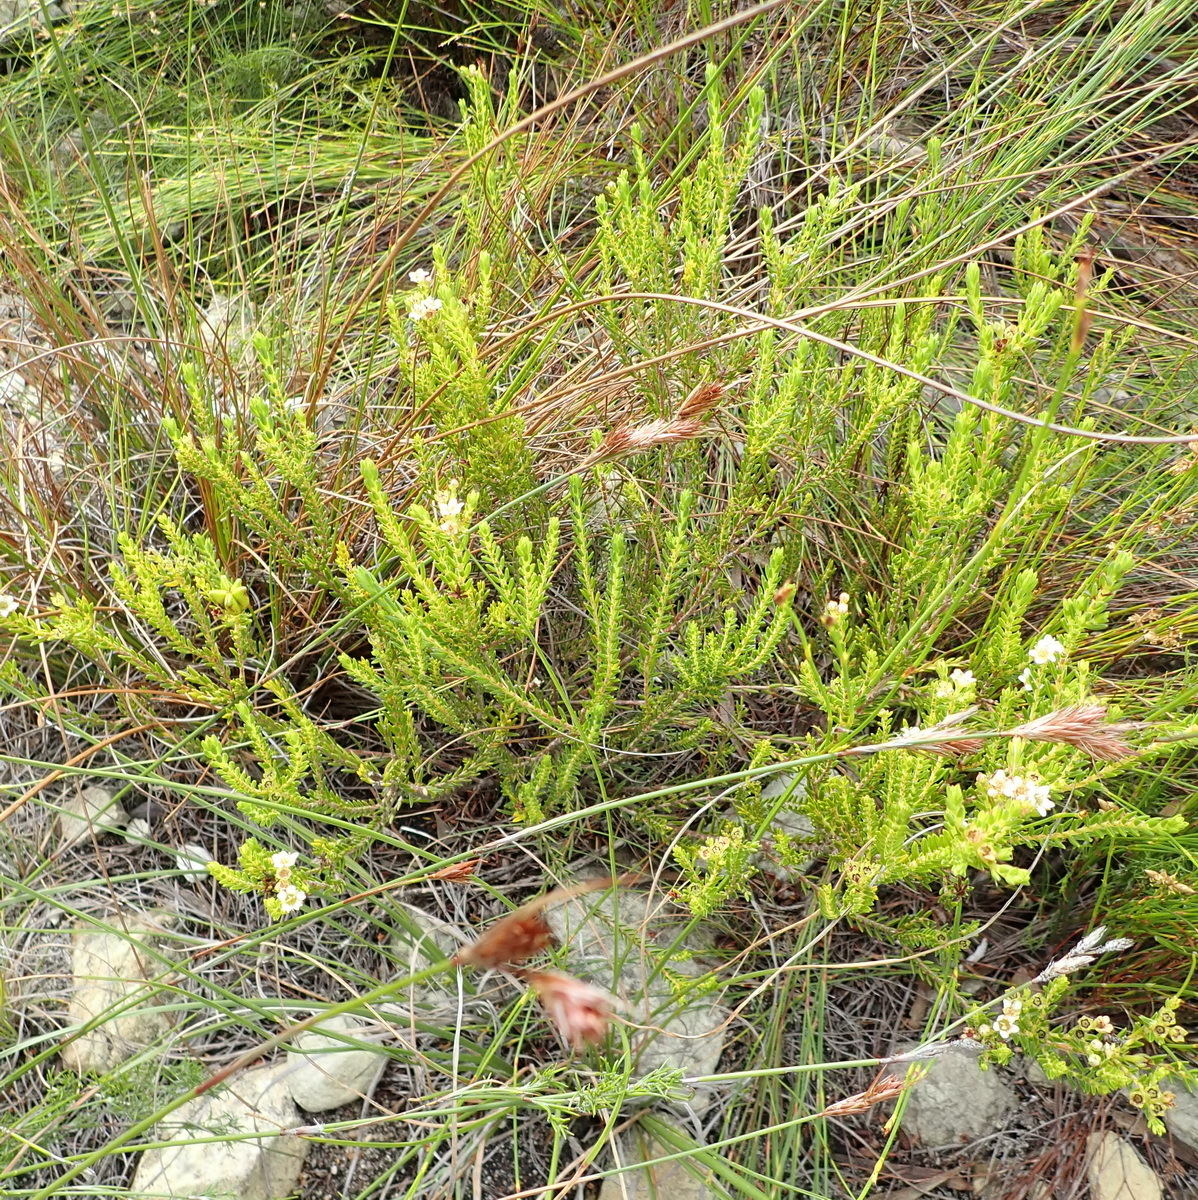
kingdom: Plantae
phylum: Tracheophyta
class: Magnoliopsida
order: Sapindales
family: Rutaceae
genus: Diosma
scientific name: Diosma oppositifolia
